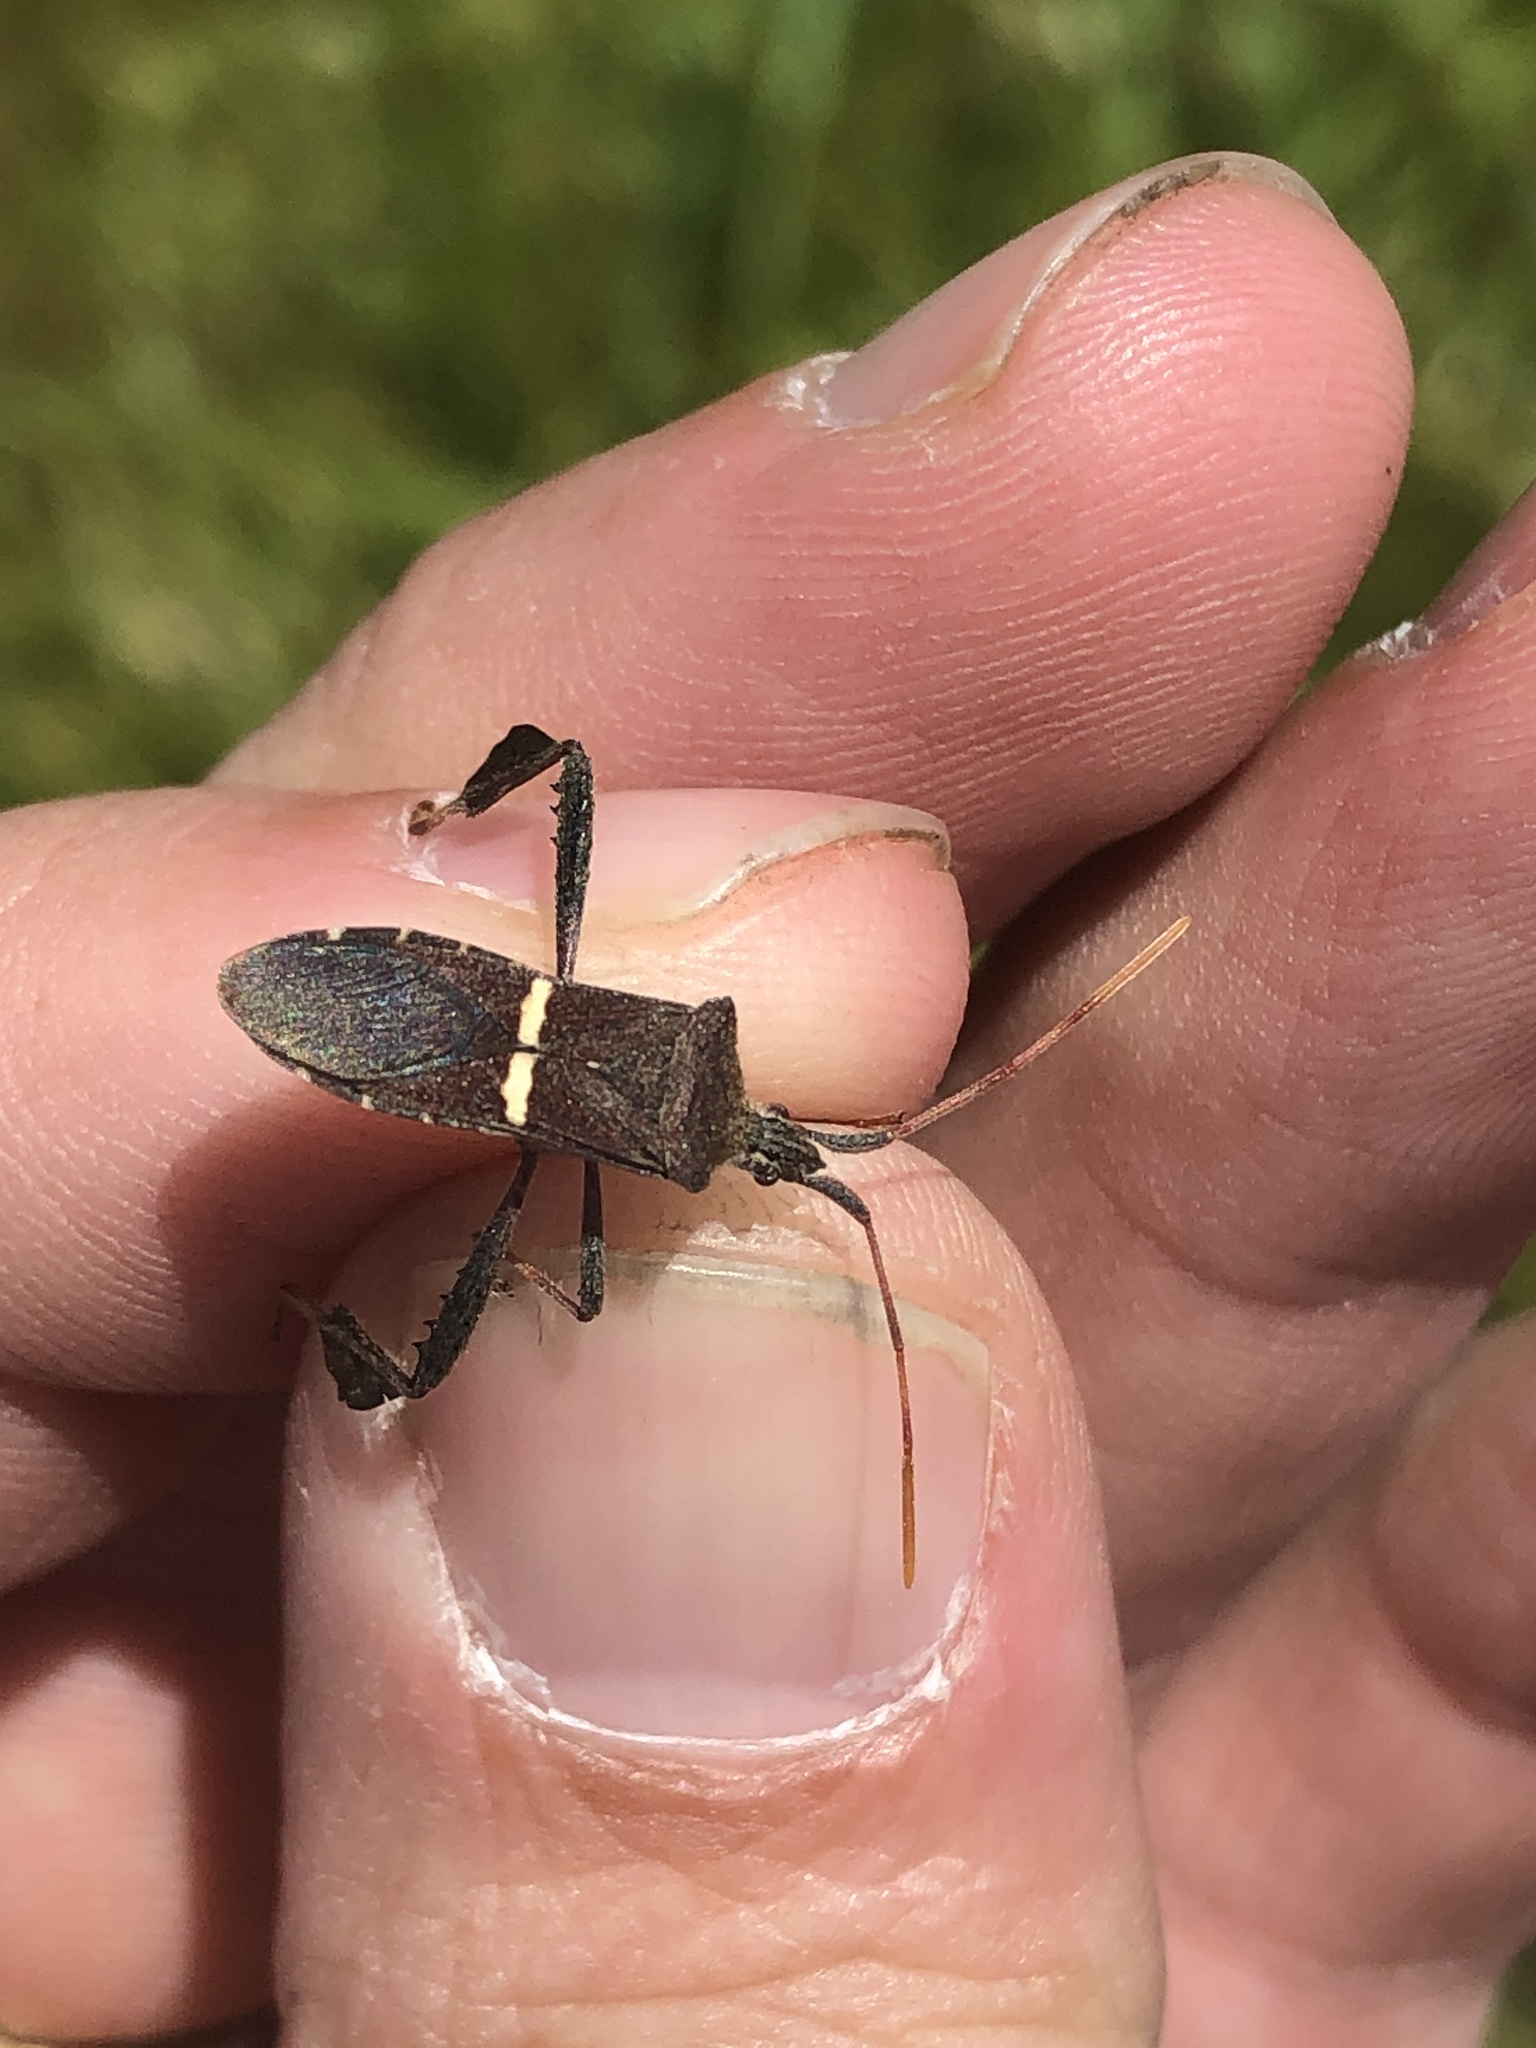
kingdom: Animalia
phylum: Arthropoda
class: Insecta
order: Hemiptera
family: Coreidae
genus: Leptoglossus
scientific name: Leptoglossus phyllopus
